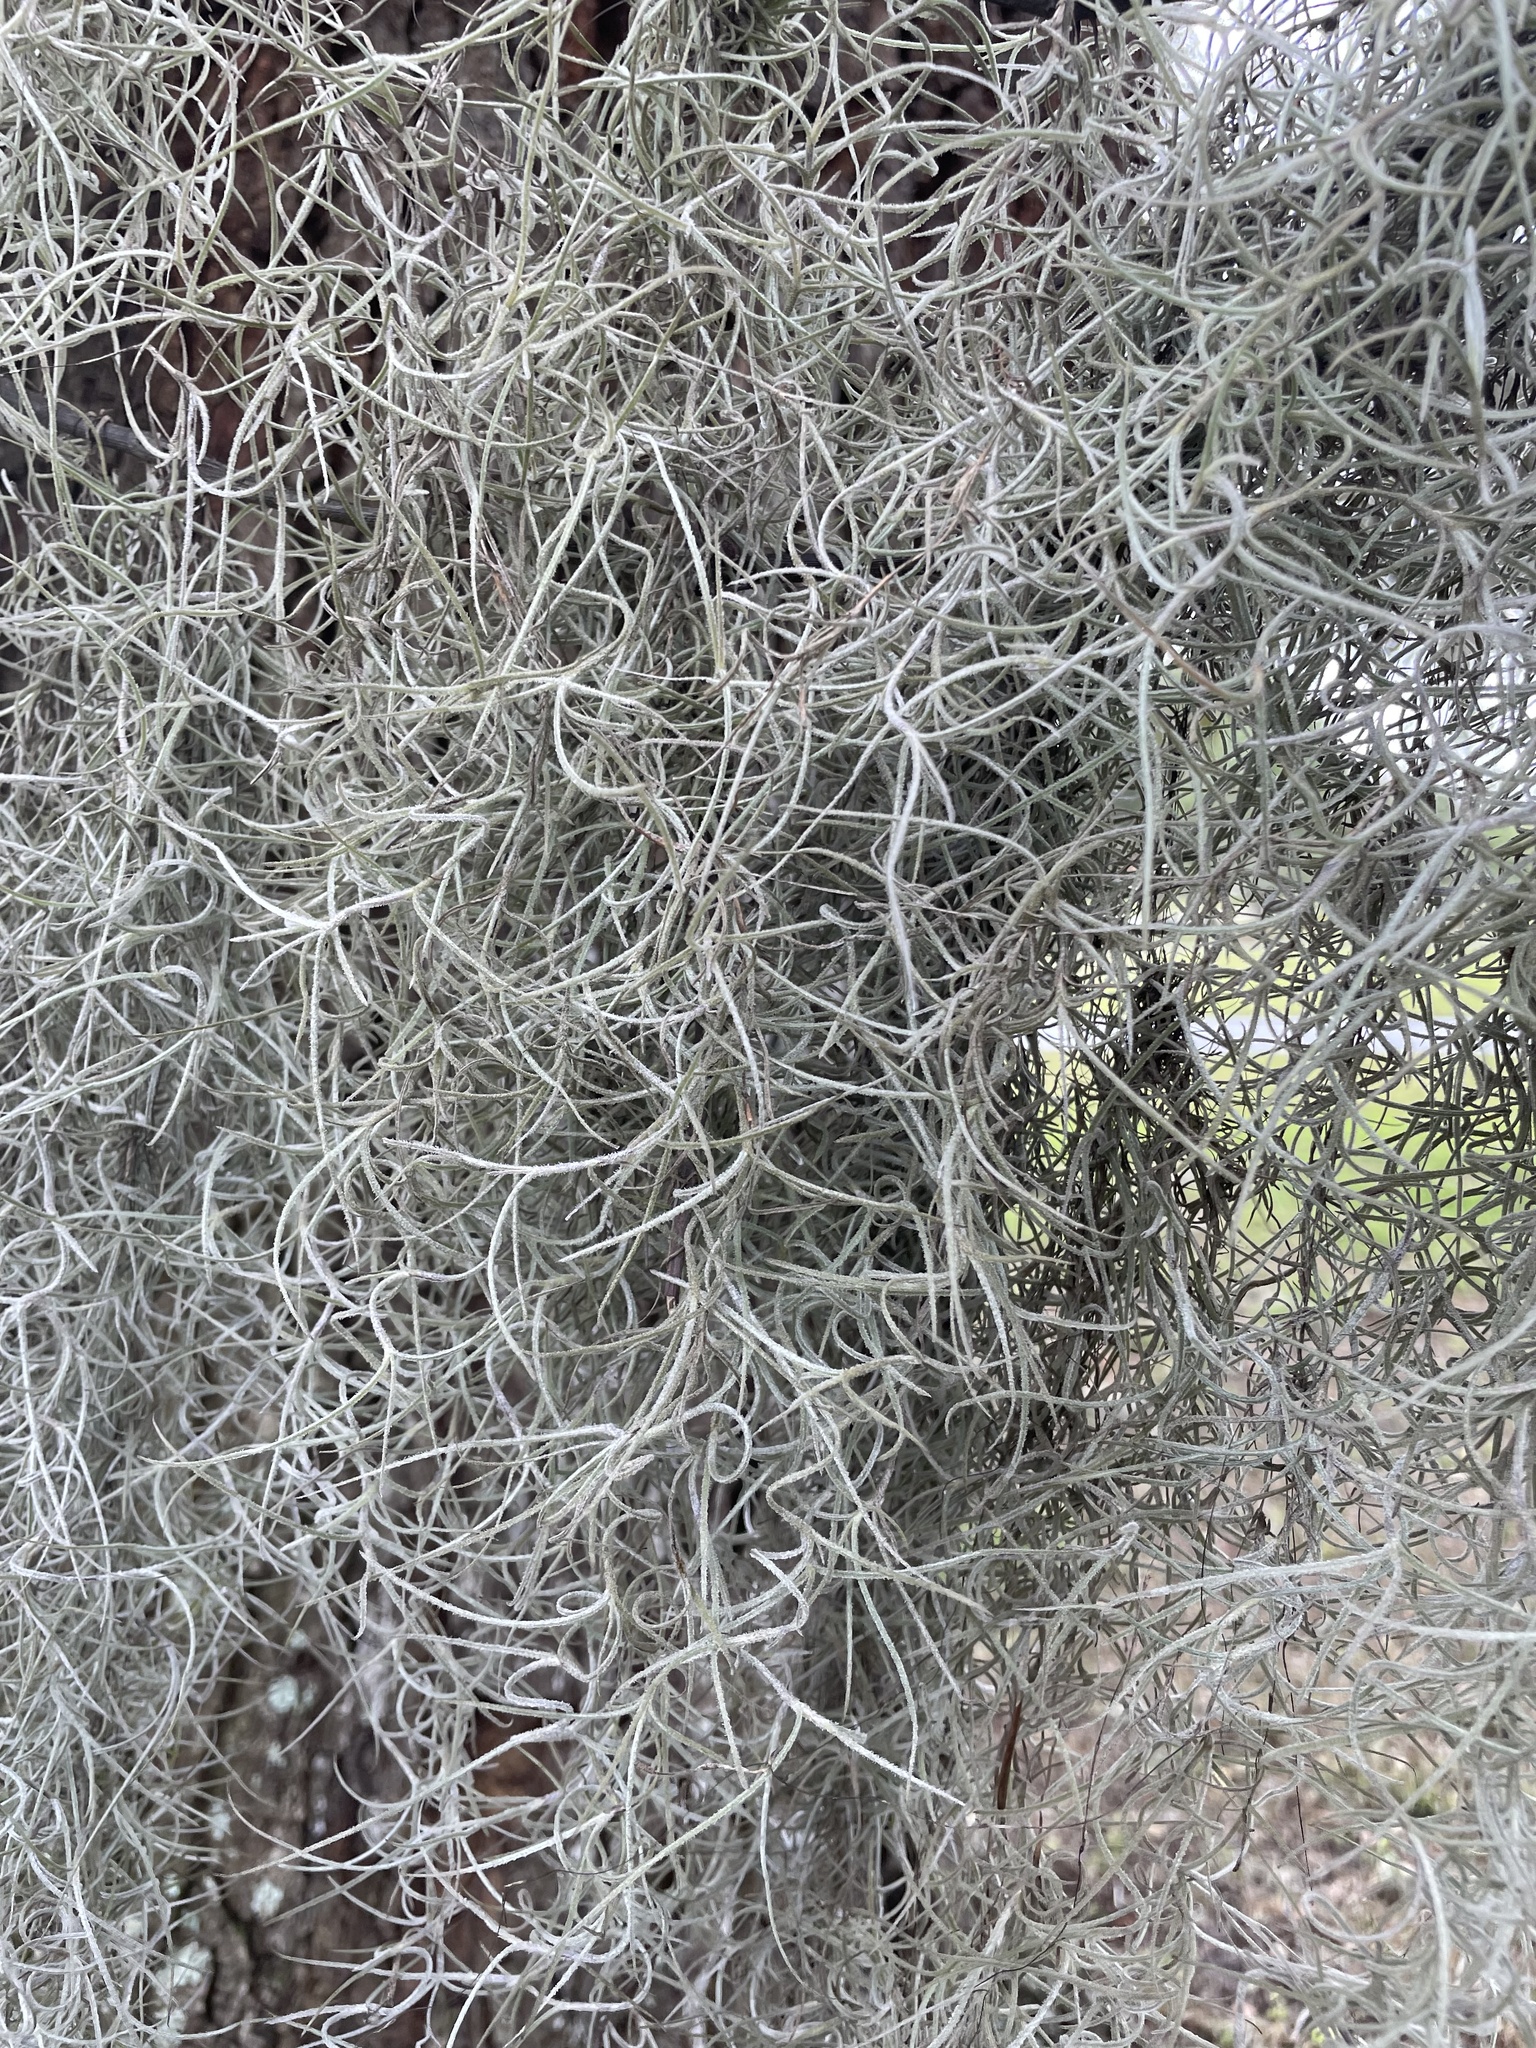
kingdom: Plantae
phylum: Tracheophyta
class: Liliopsida
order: Poales
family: Bromeliaceae
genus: Tillandsia
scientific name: Tillandsia usneoides
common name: Spanish moss
